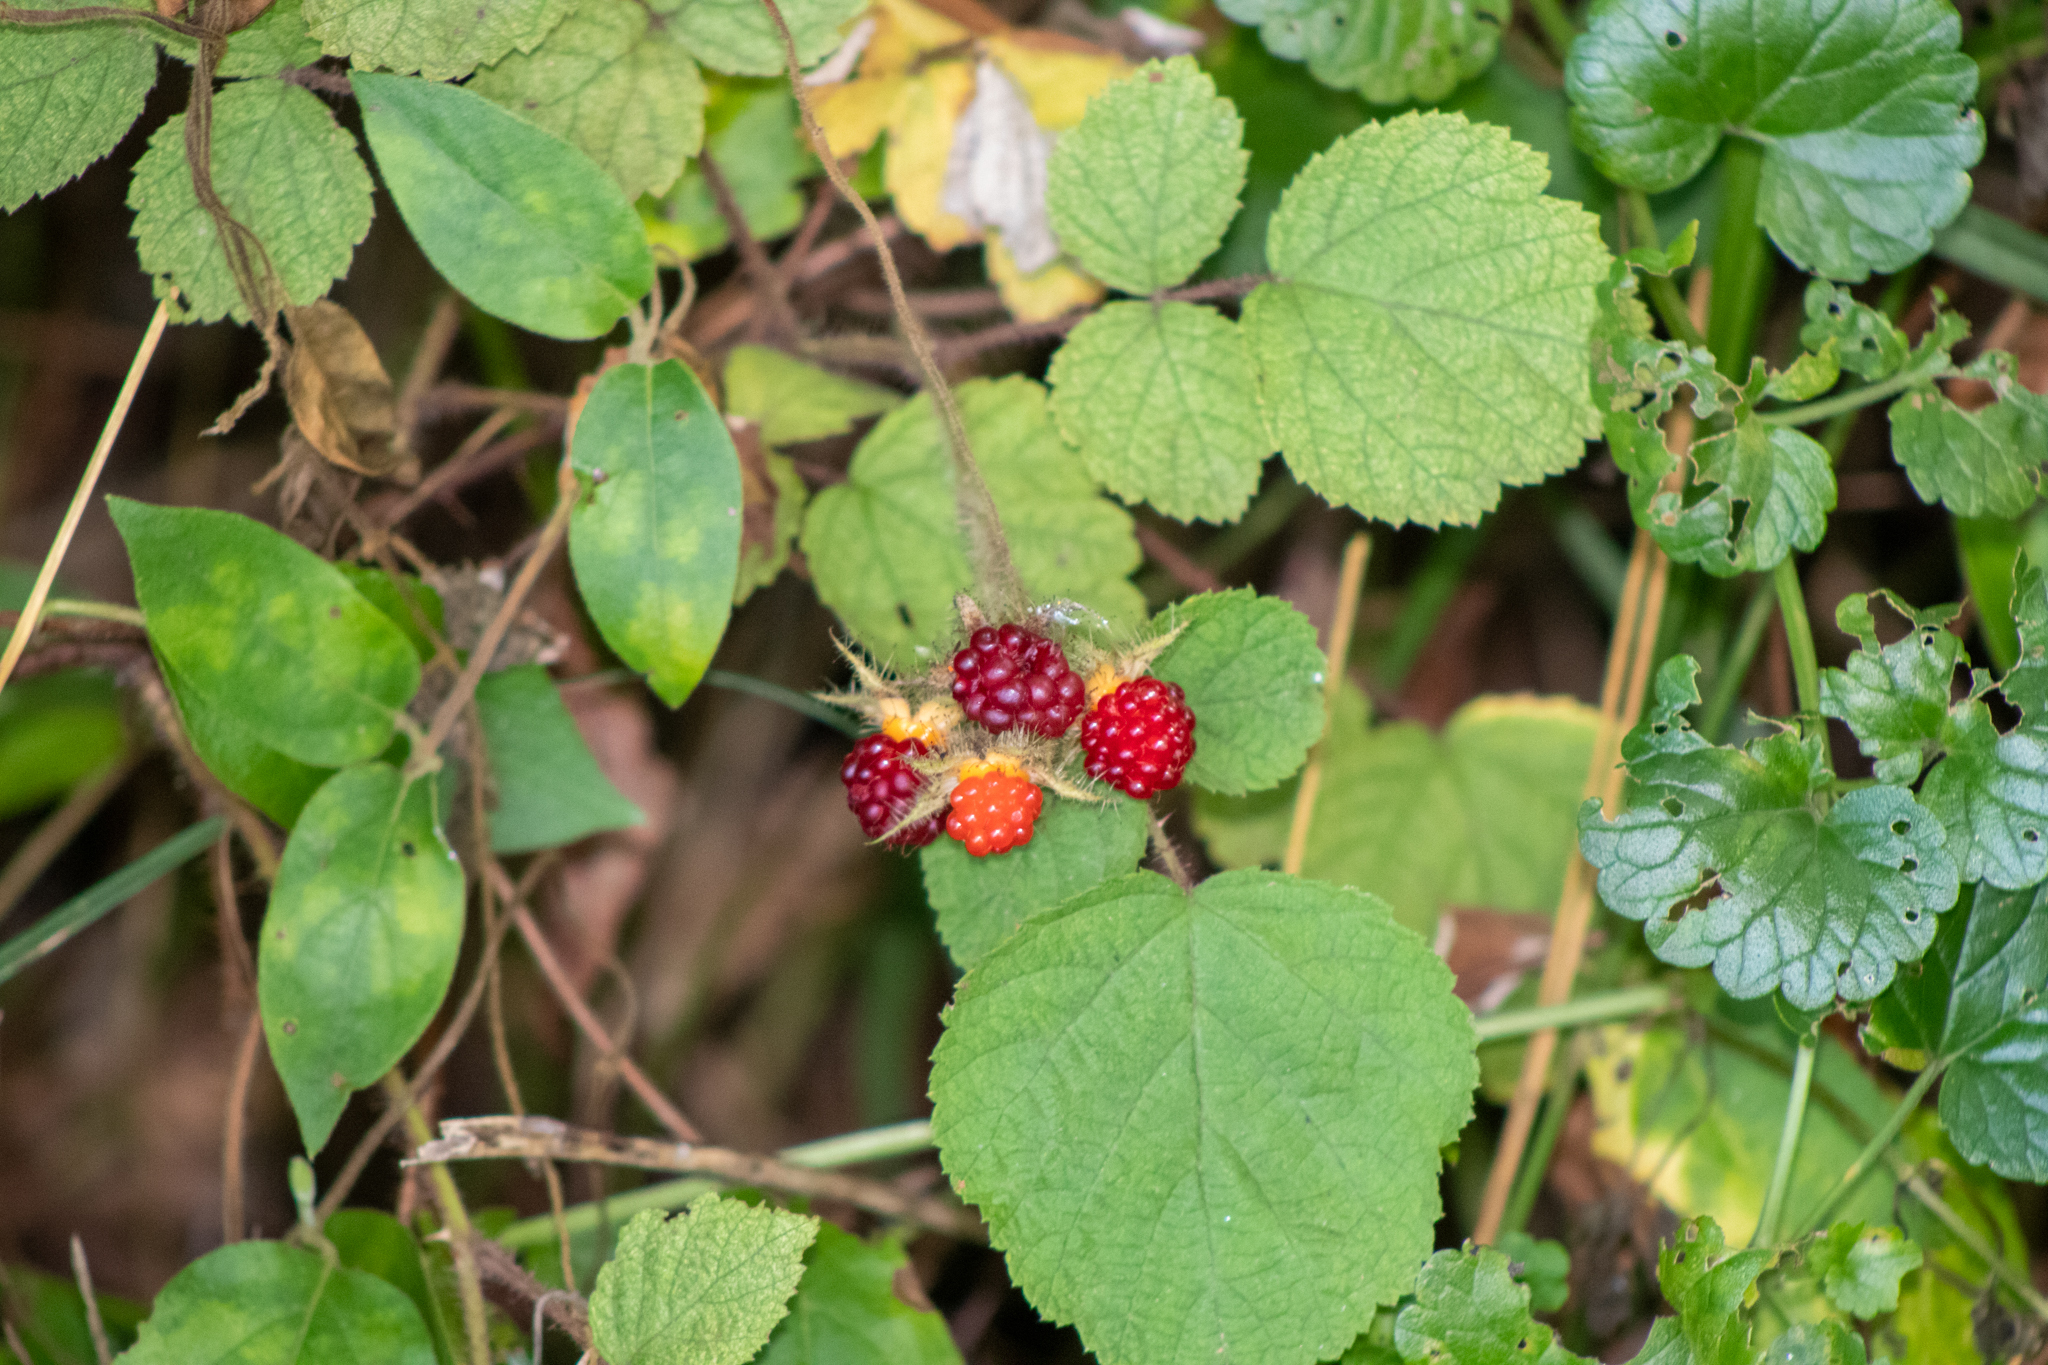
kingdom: Plantae
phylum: Tracheophyta
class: Magnoliopsida
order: Rosales
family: Rosaceae
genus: Rubus
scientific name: Rubus phoenicolasius
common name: Japanese wineberry
